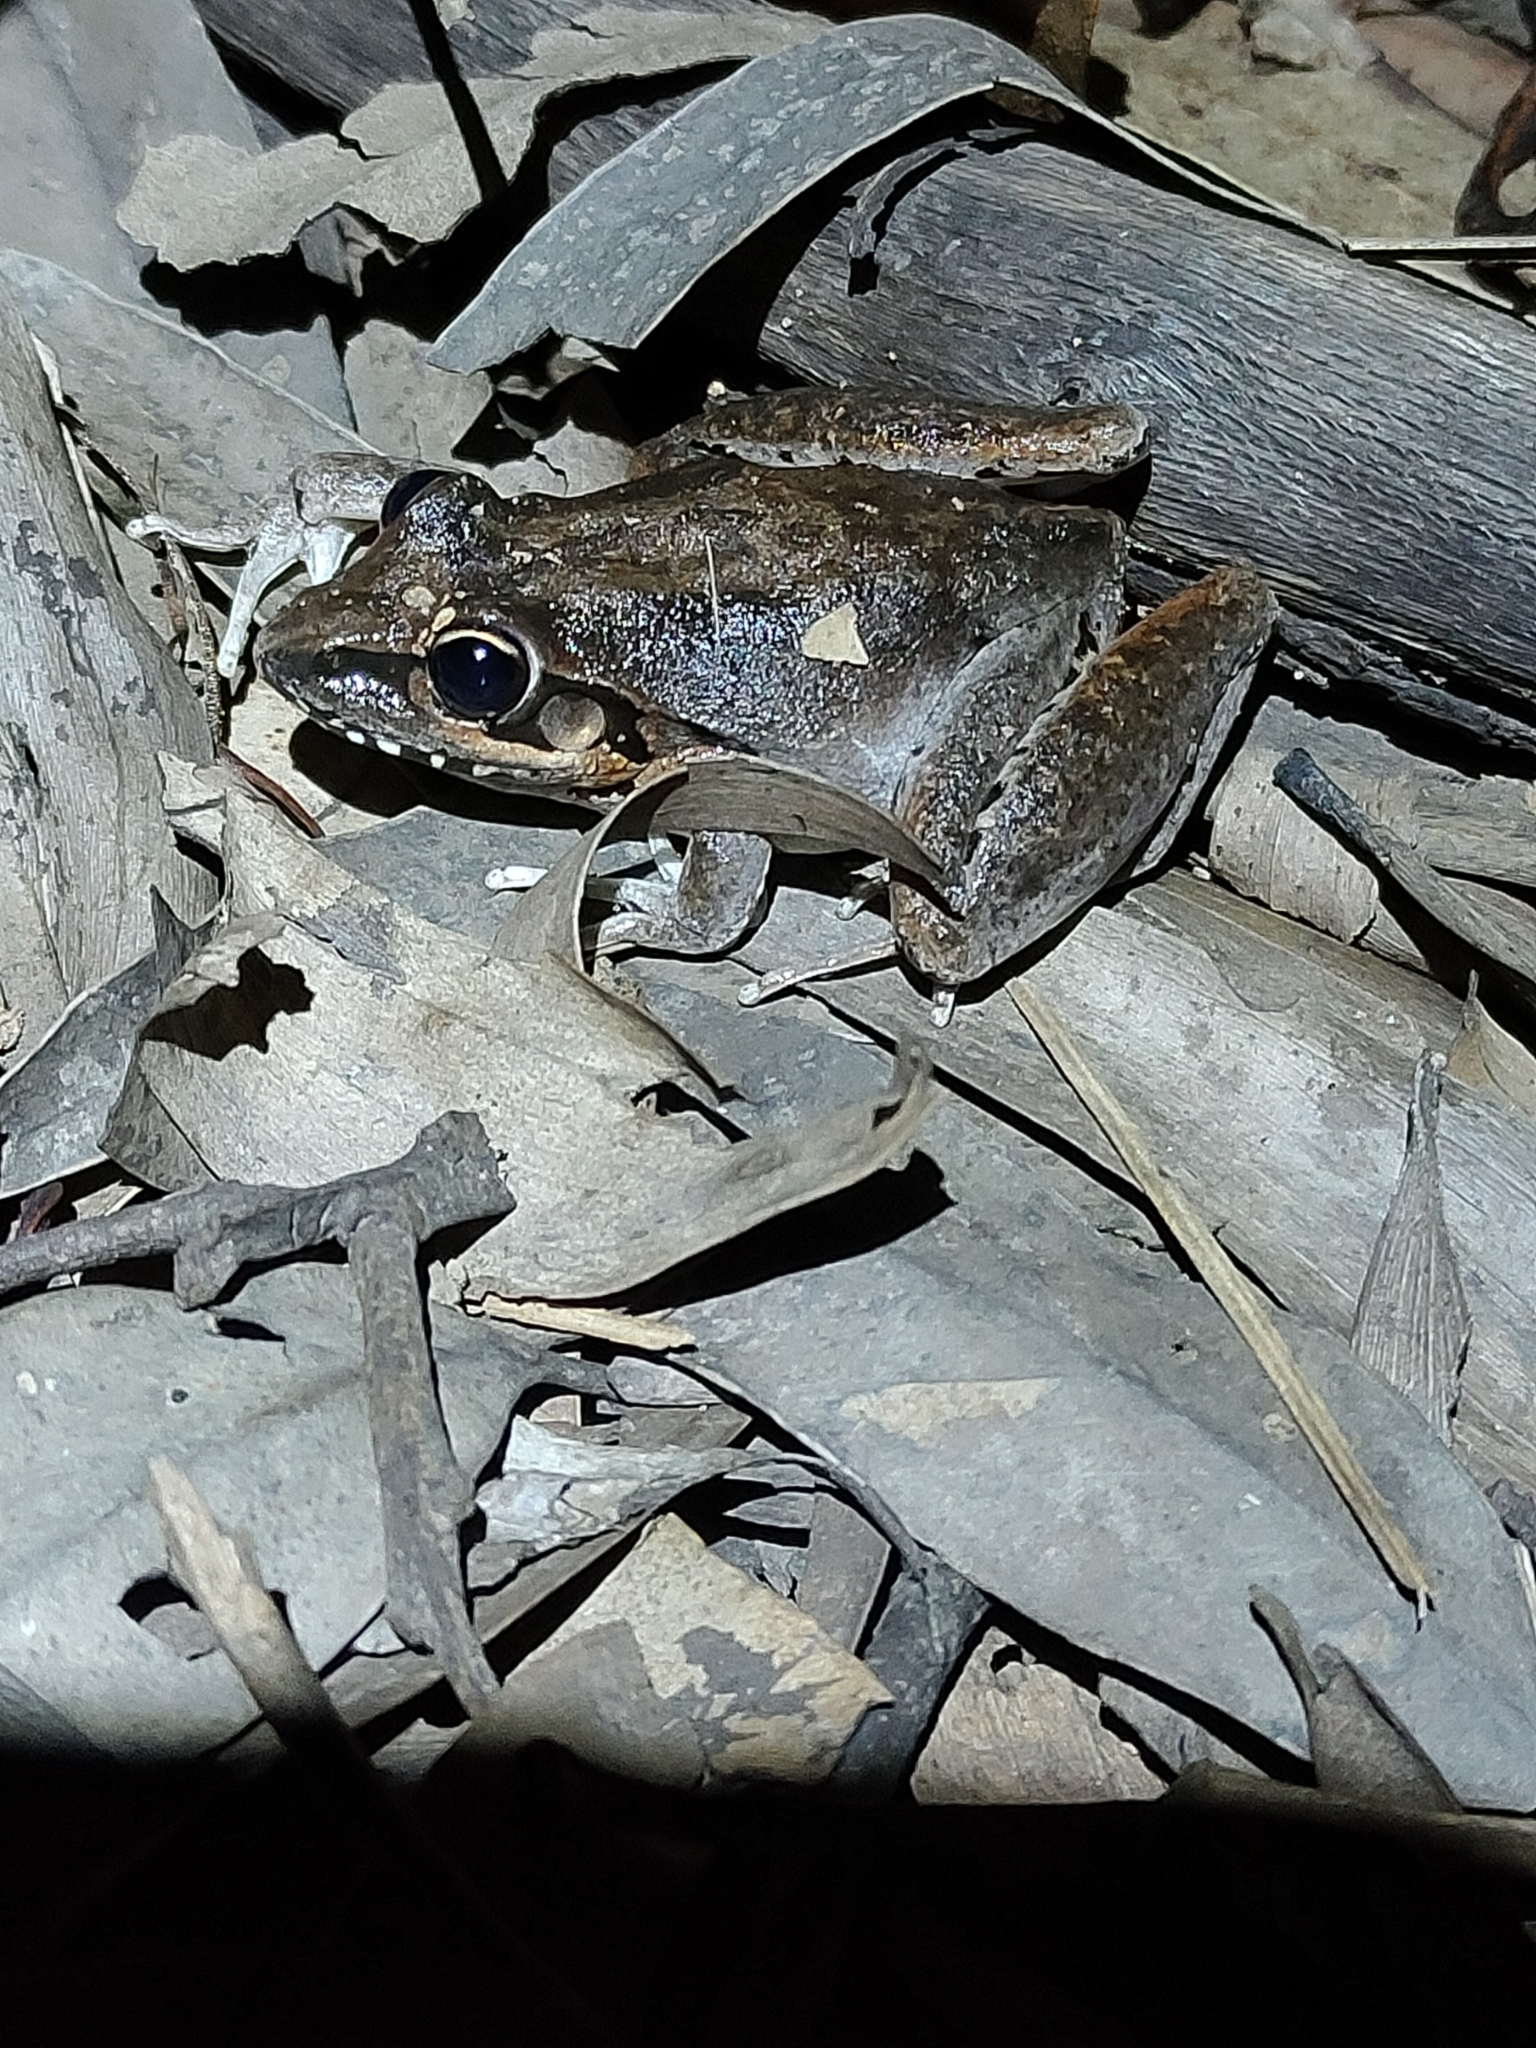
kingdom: Animalia
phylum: Chordata
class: Amphibia
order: Anura
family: Pelodryadidae
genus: Litoria
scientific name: Litoria latopalmata
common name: Broad-palmed rocket frog
